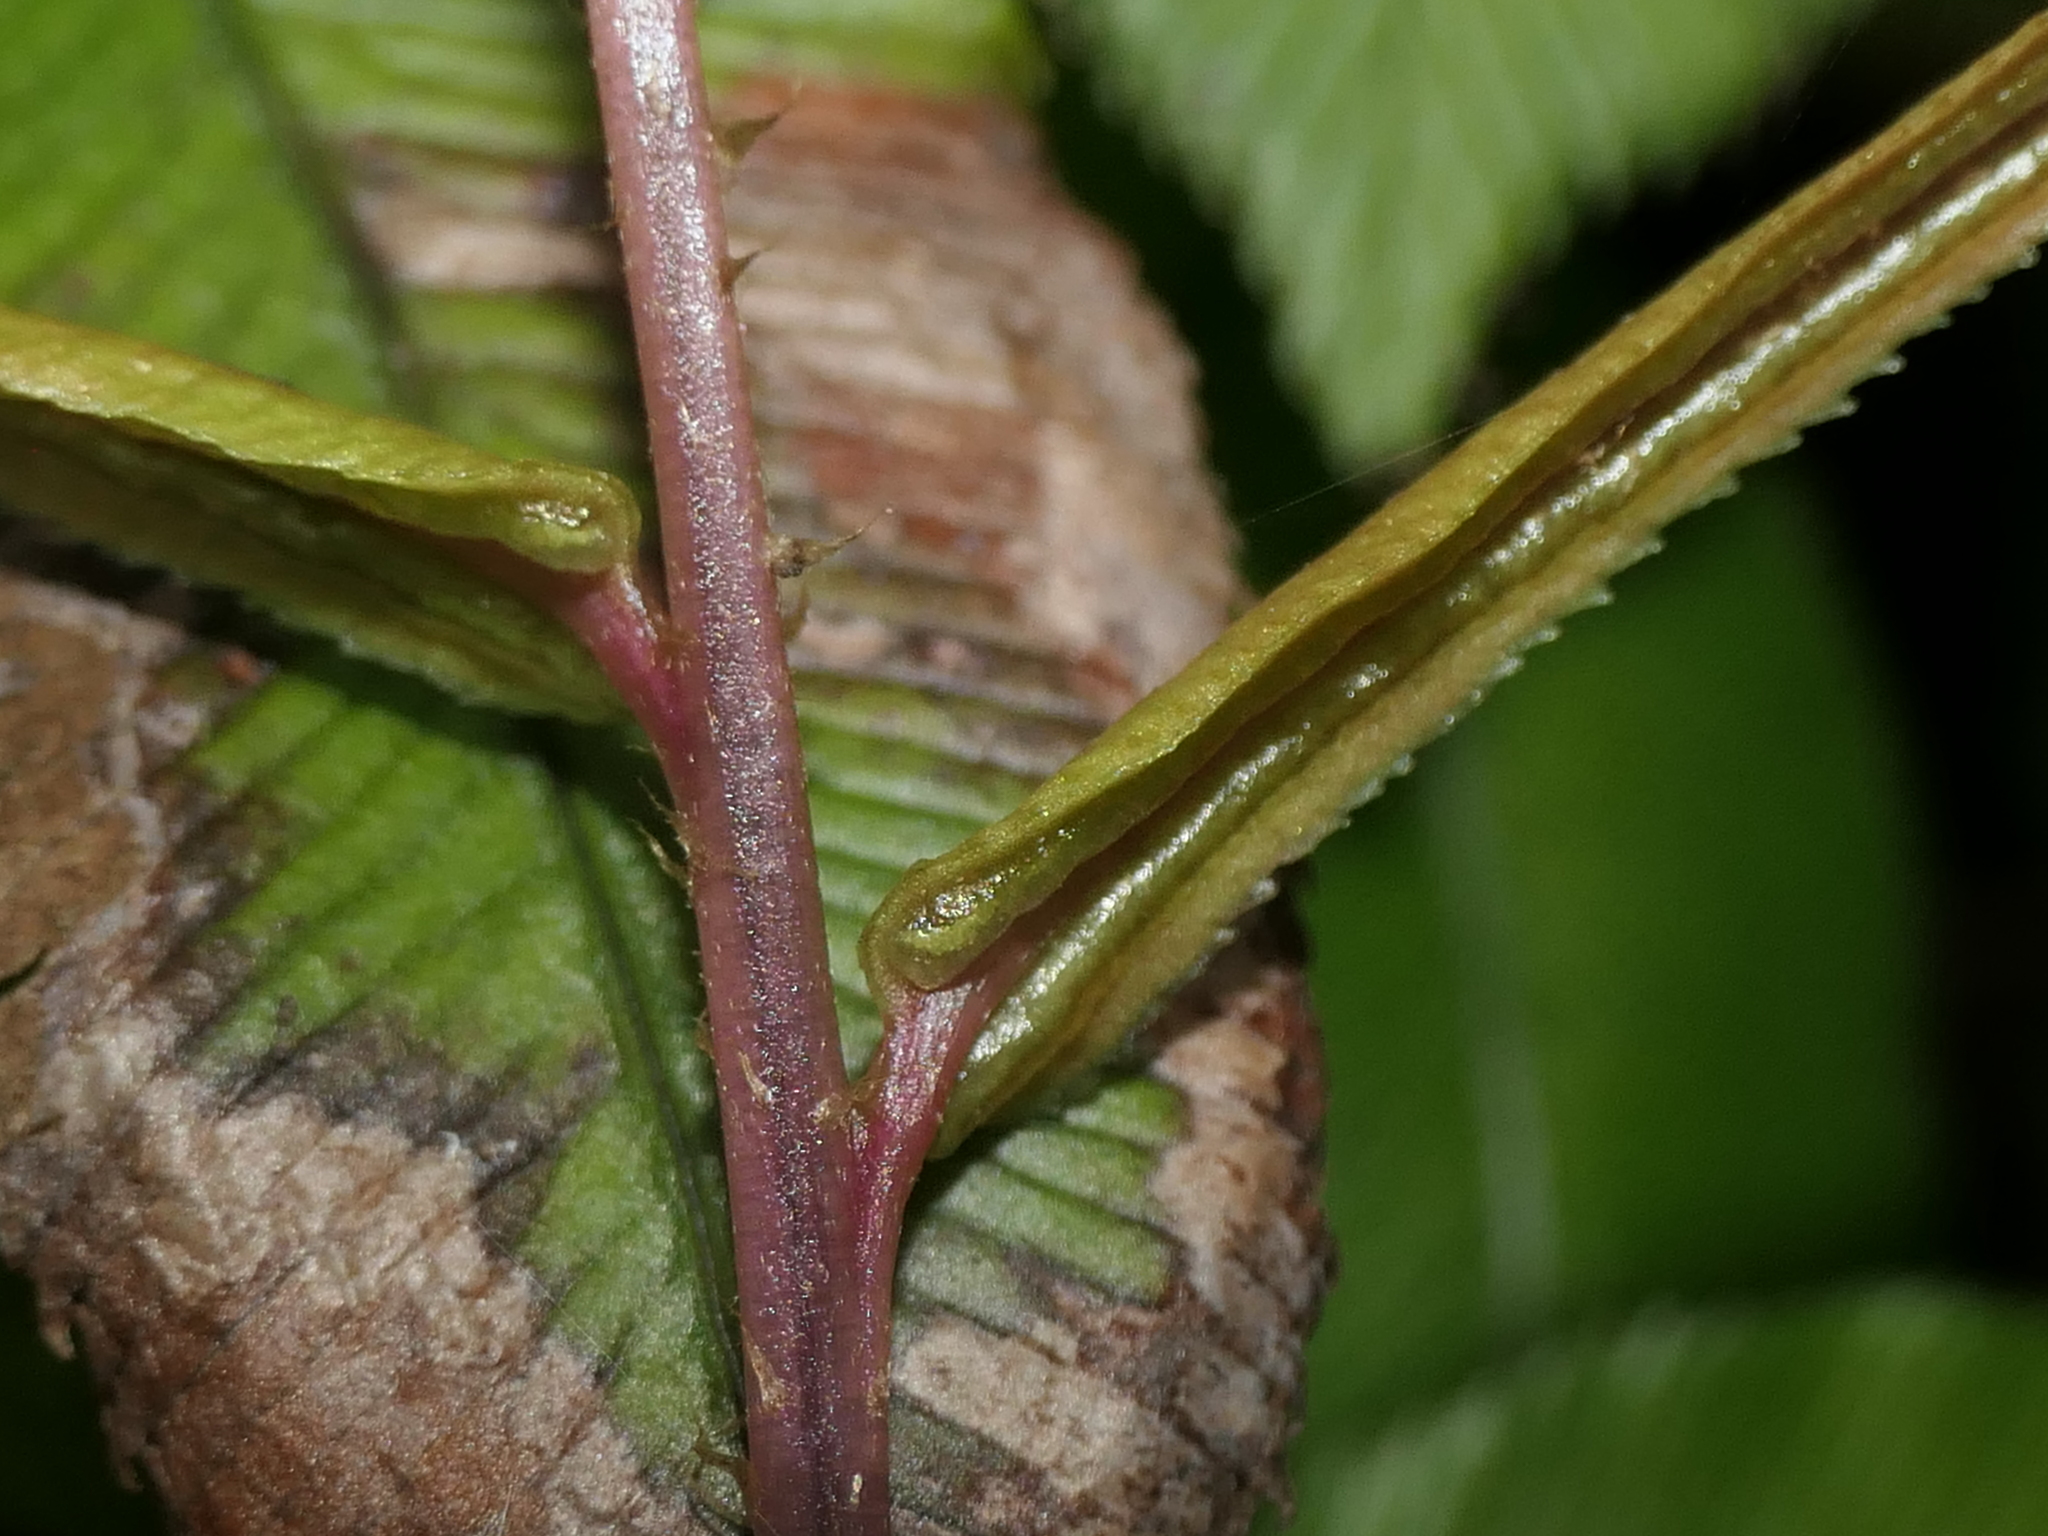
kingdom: Plantae
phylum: Tracheophyta
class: Polypodiopsida
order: Polypodiales
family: Blechnaceae
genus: Parablechnum
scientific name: Parablechnum wattsii
